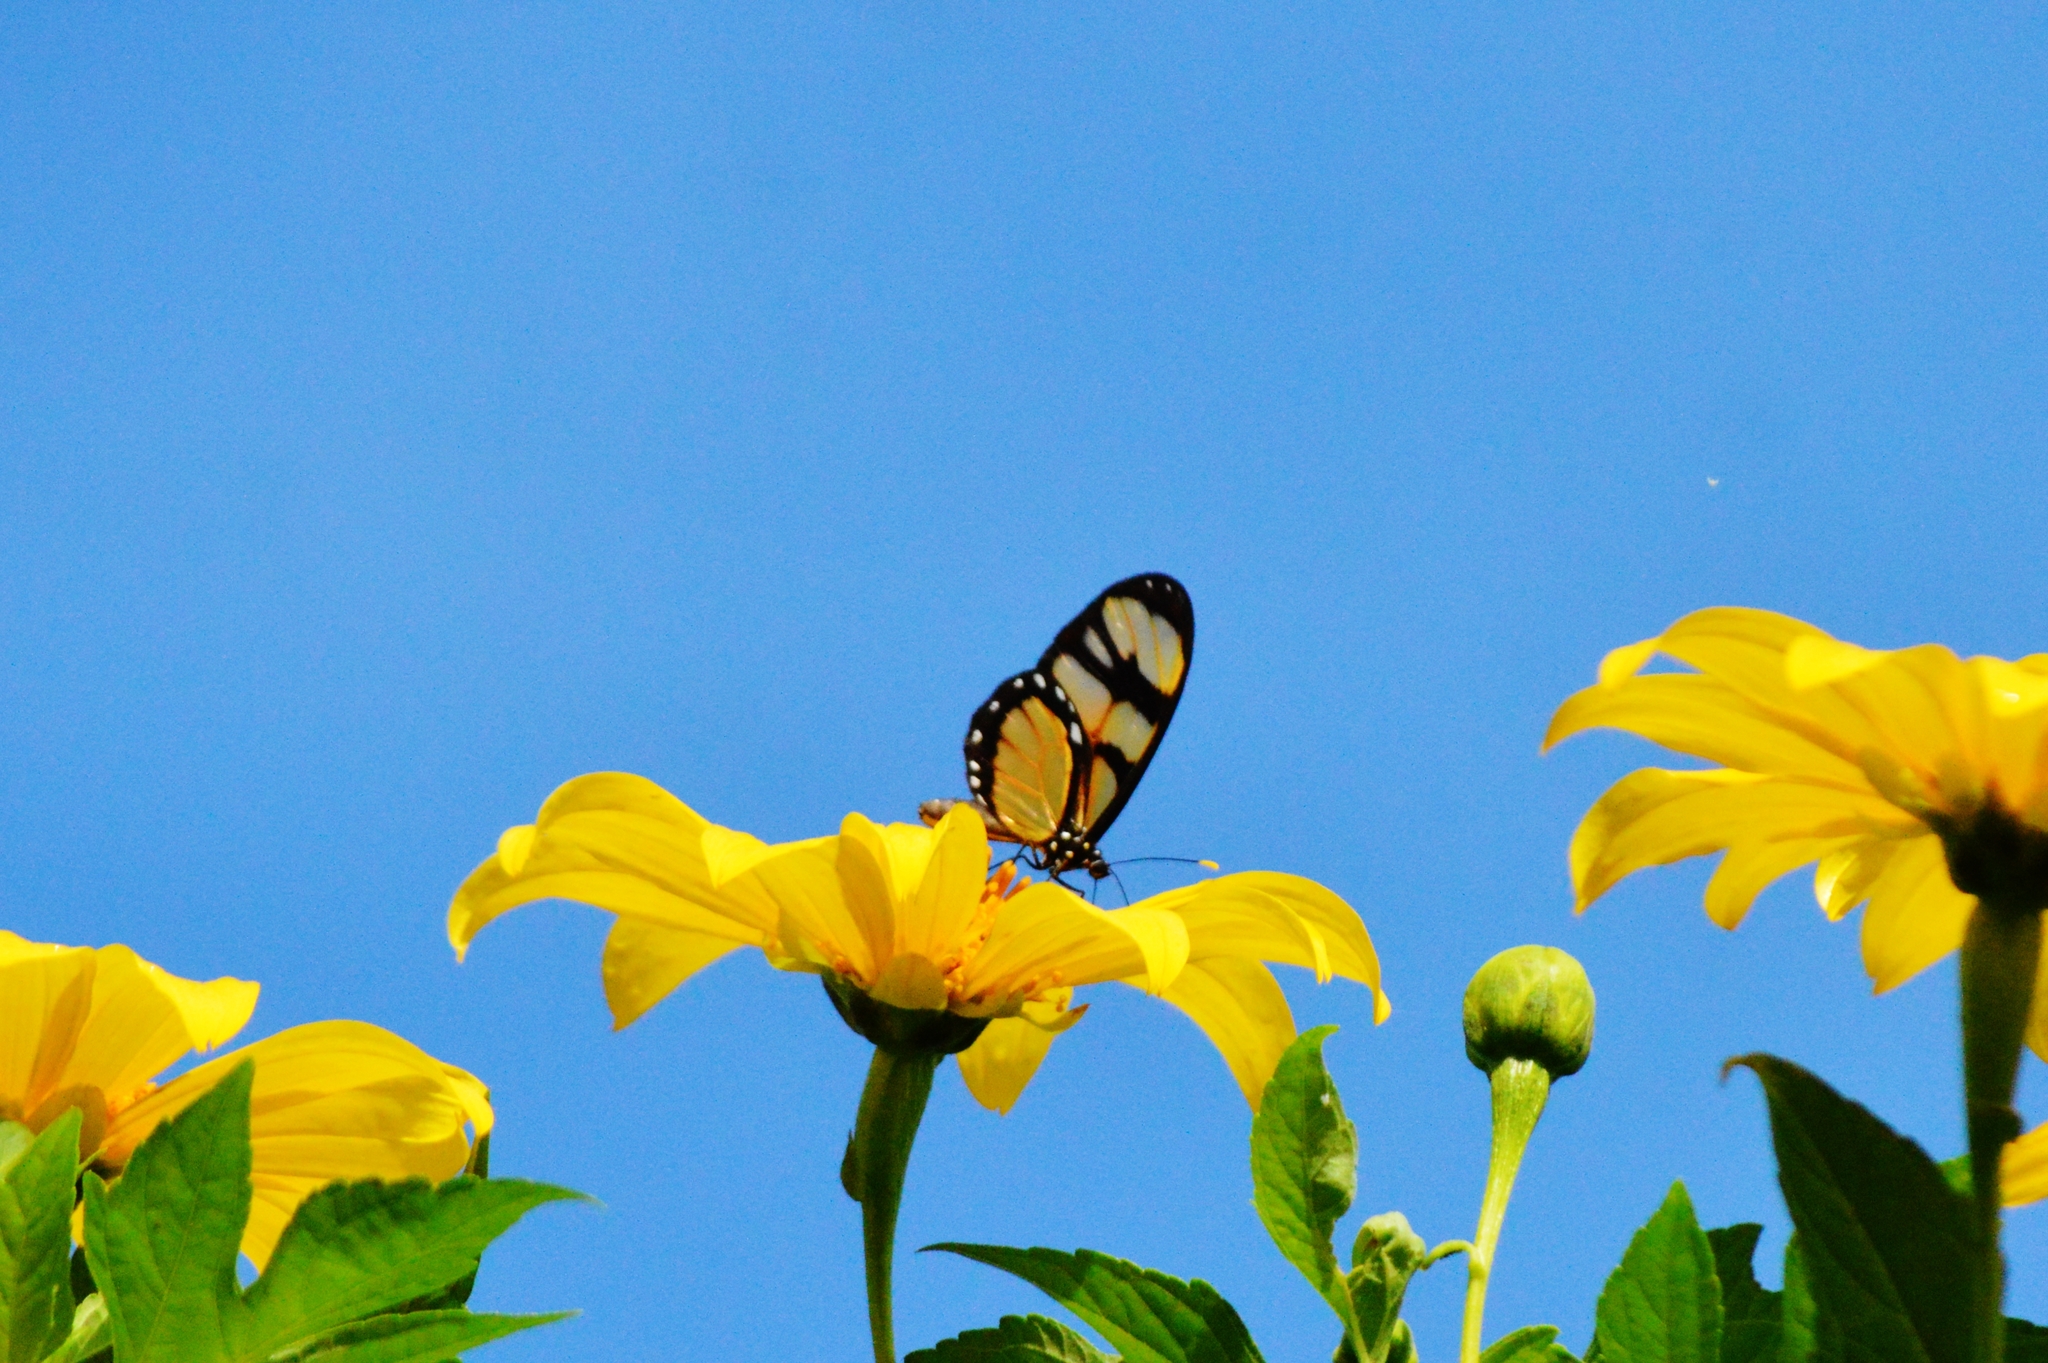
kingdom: Animalia
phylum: Arthropoda
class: Insecta
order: Lepidoptera
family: Nymphalidae
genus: Dircenna
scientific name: Dircenna dero
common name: Dero clearwing
